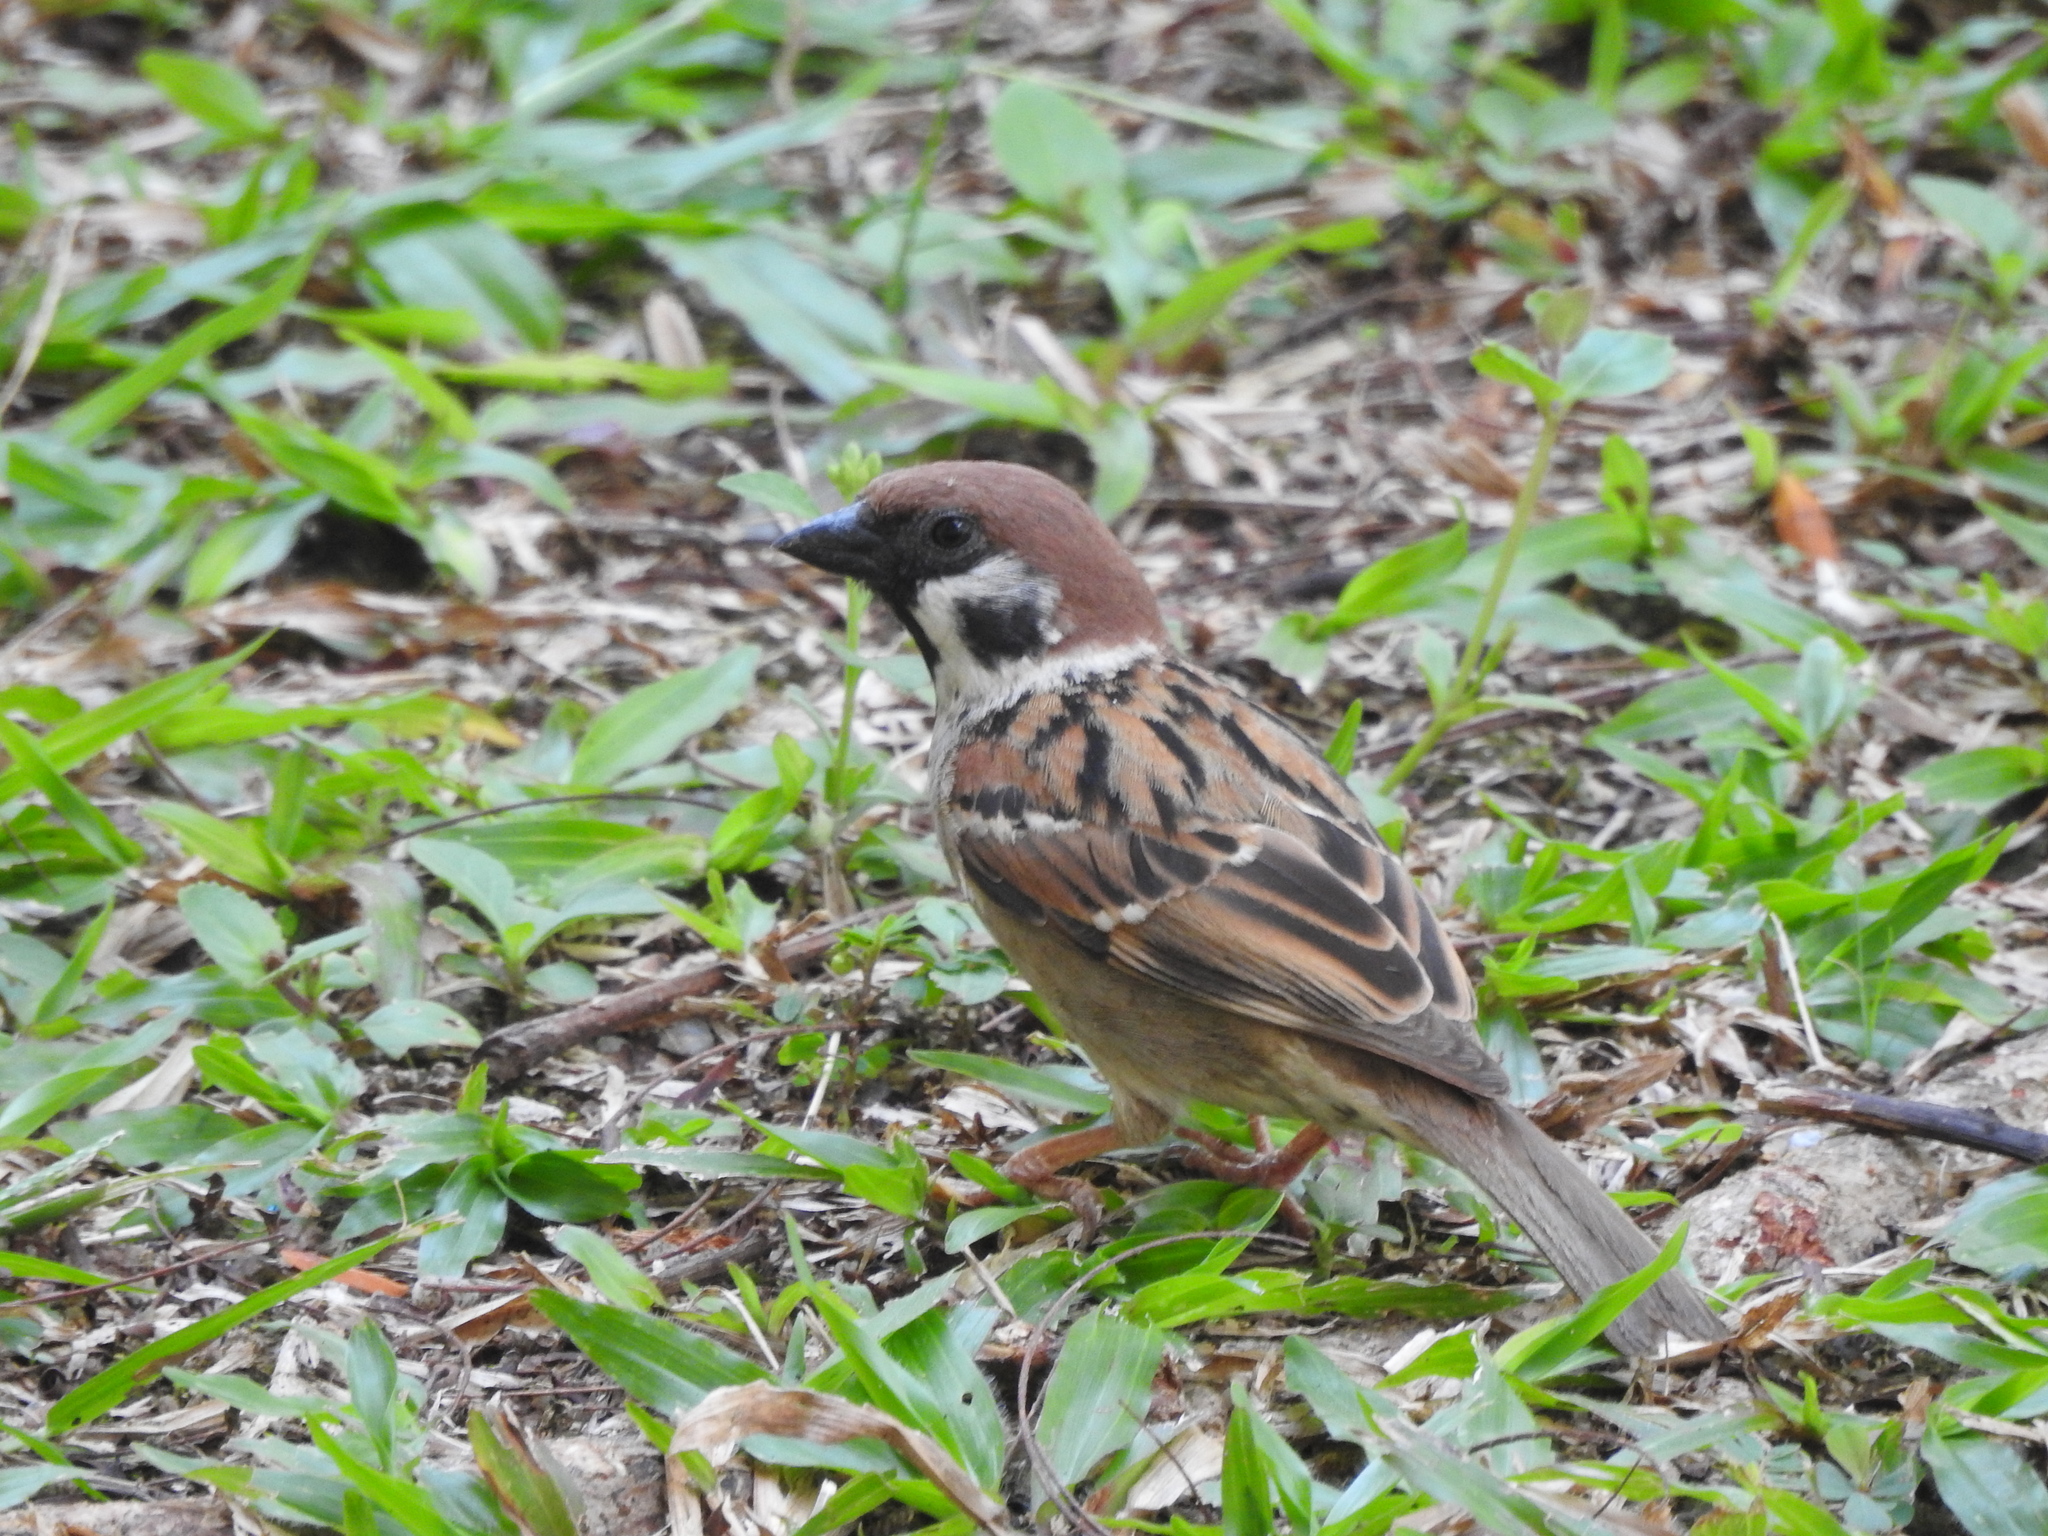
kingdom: Animalia
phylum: Chordata
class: Aves
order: Passeriformes
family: Passeridae
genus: Passer
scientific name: Passer montanus
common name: Eurasian tree sparrow
